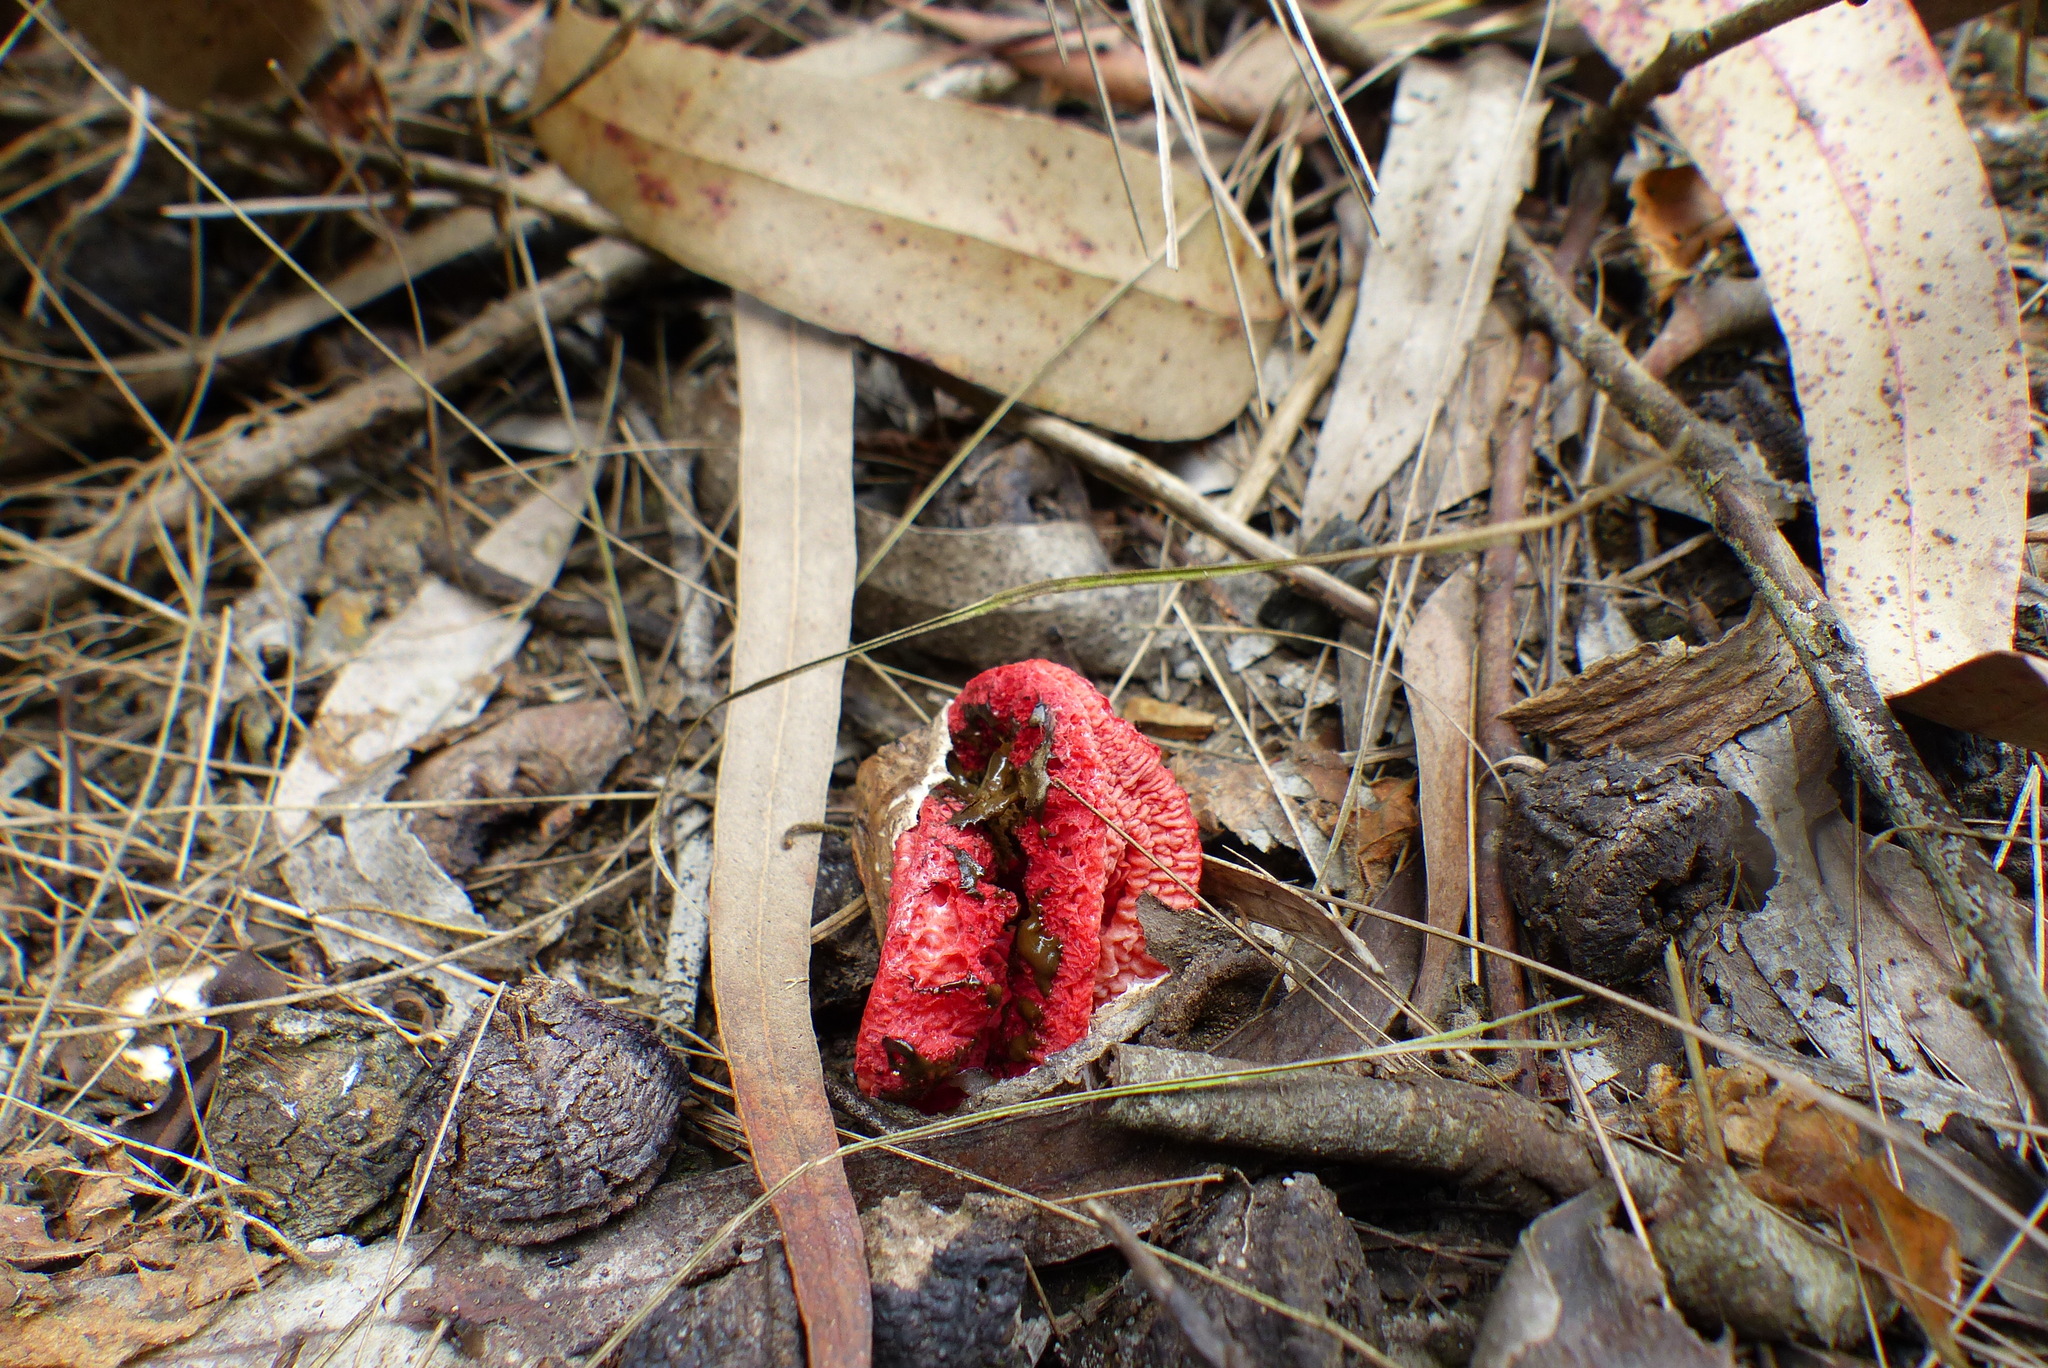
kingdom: Fungi
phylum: Basidiomycota
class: Agaricomycetes
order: Phallales
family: Phallaceae
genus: Clathrus
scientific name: Clathrus archeri
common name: Devil's fingers
